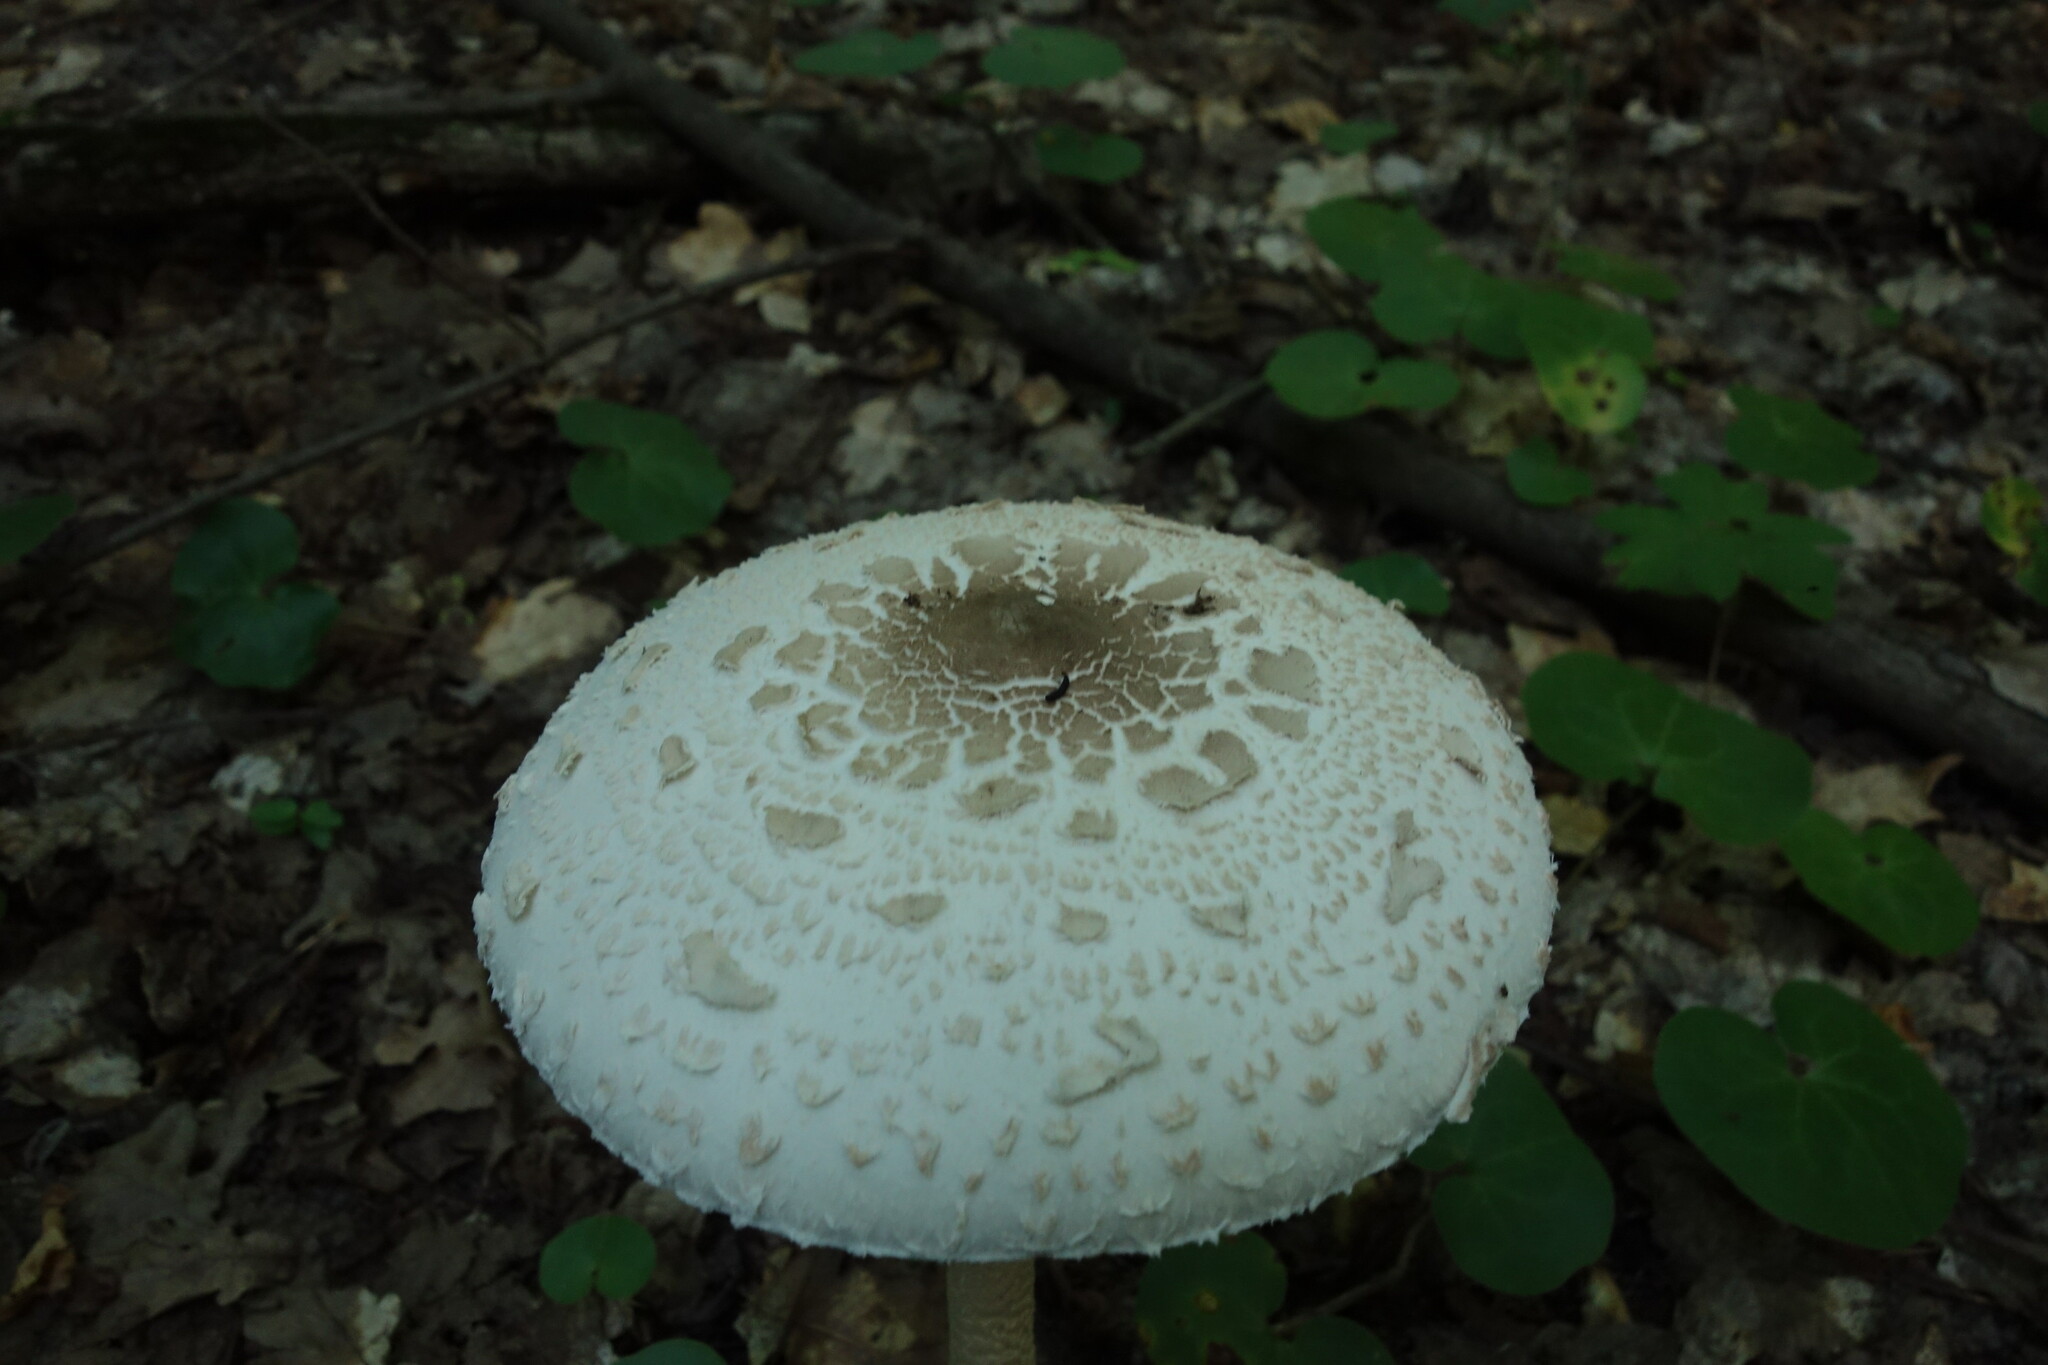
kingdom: Fungi
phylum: Basidiomycota
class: Agaricomycetes
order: Agaricales
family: Agaricaceae
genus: Macrolepiota
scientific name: Macrolepiota procera
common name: Parasol
